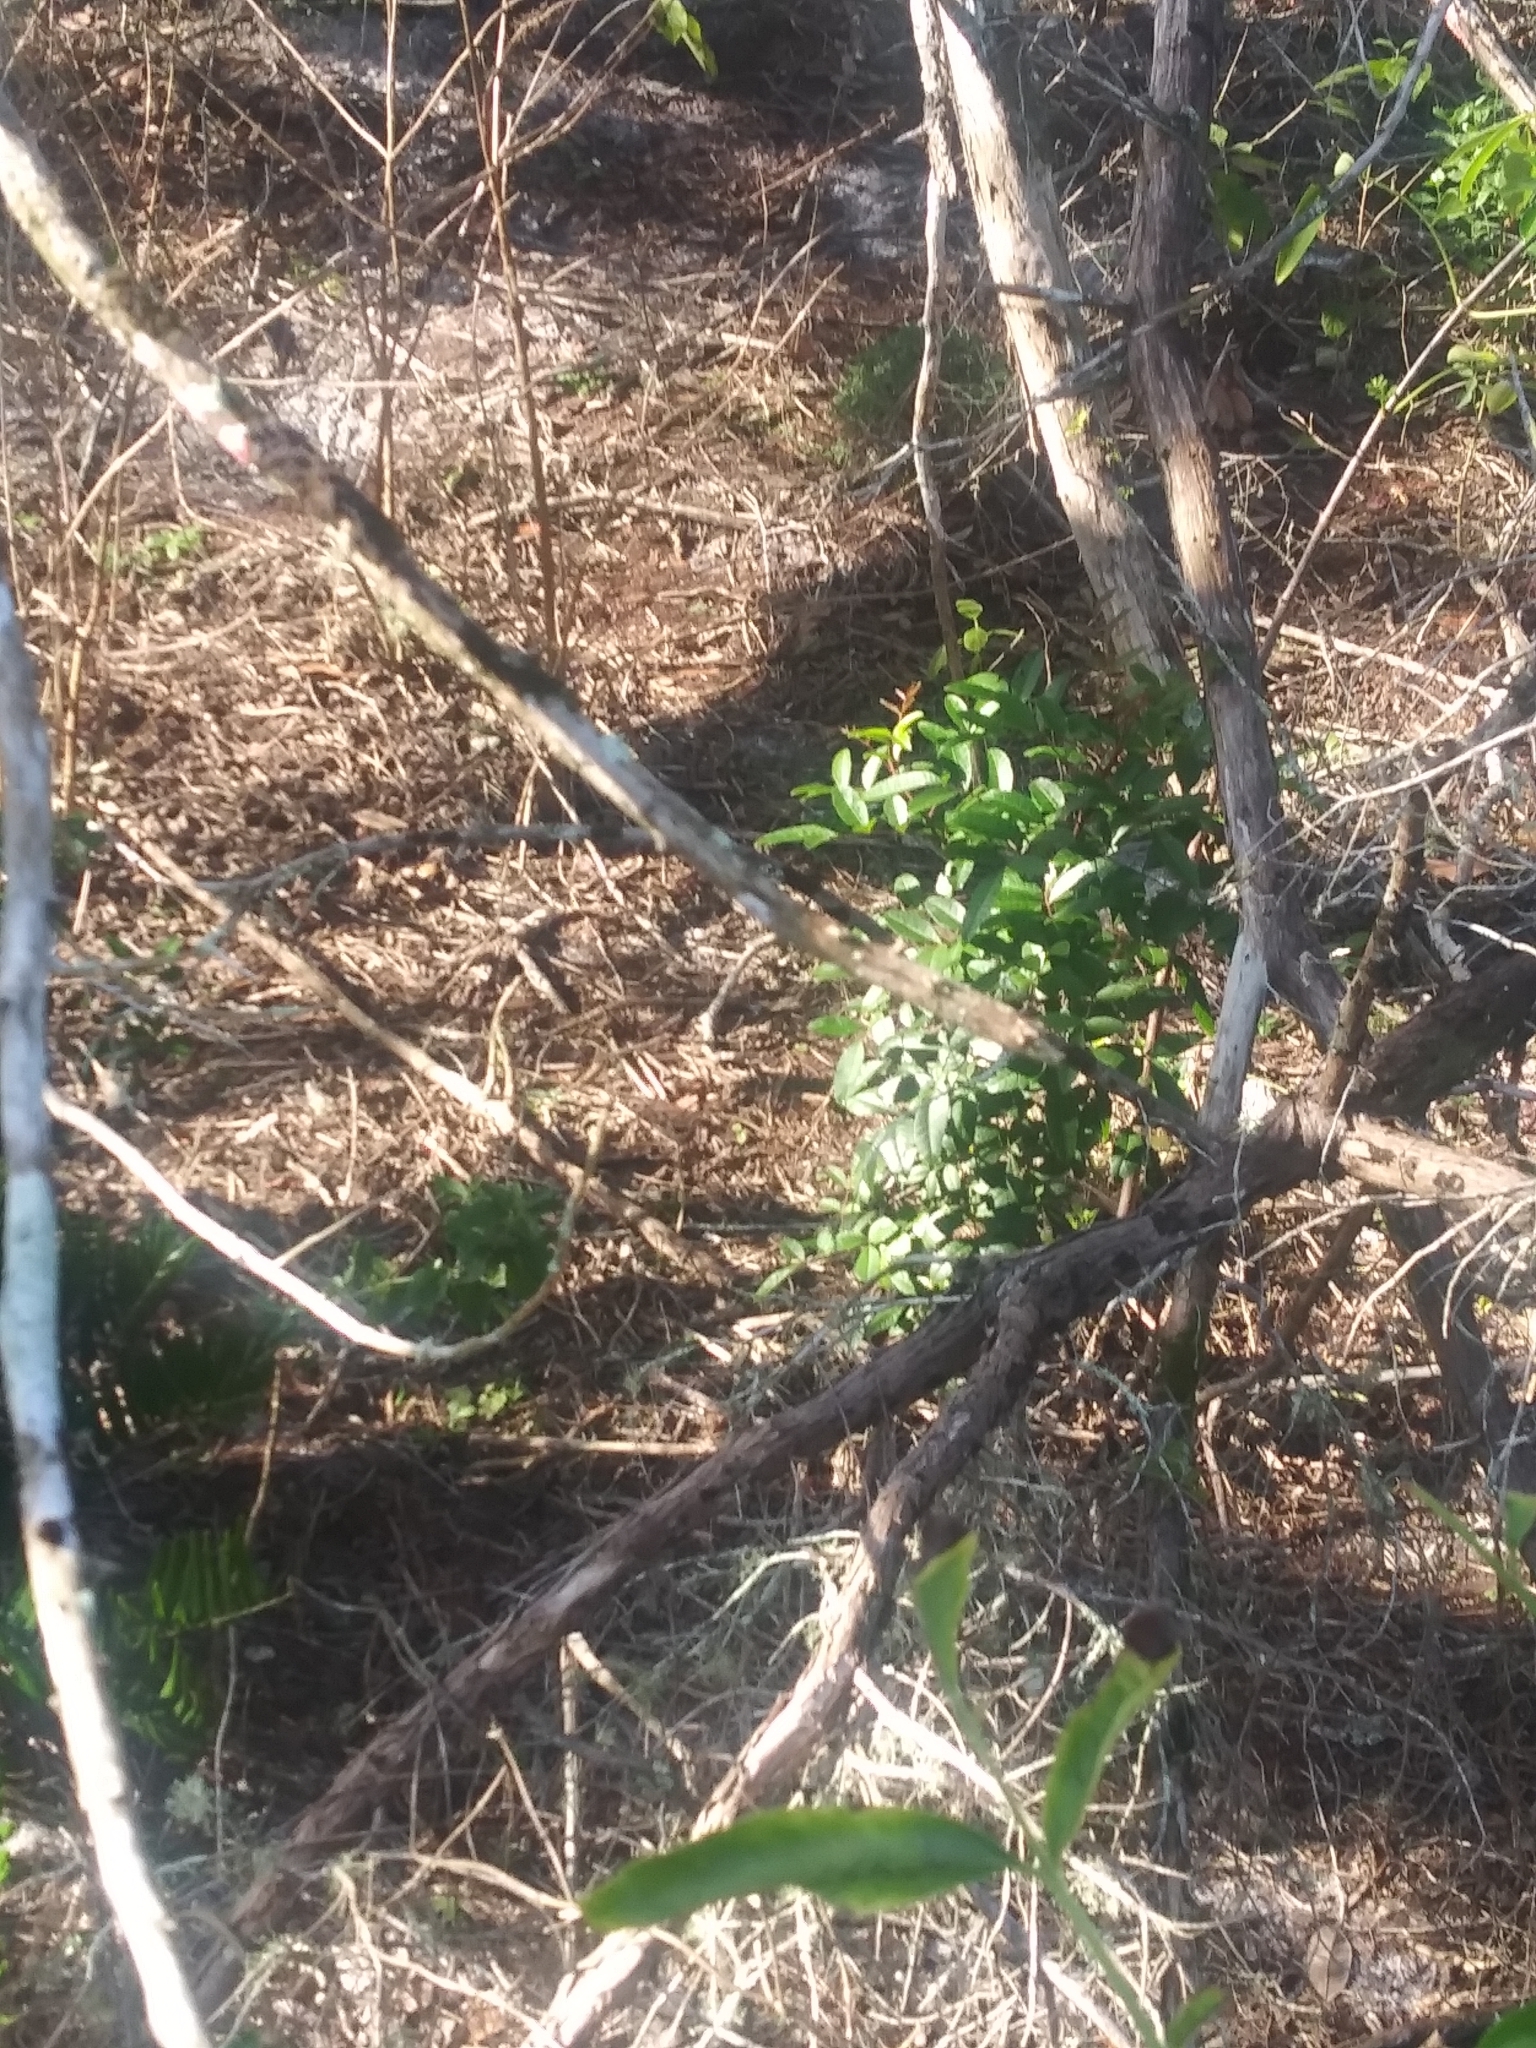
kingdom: Plantae
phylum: Tracheophyta
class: Magnoliopsida
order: Sapindales
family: Anacardiaceae
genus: Schinus
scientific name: Schinus terebinthifolia
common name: Brazilian peppertree
